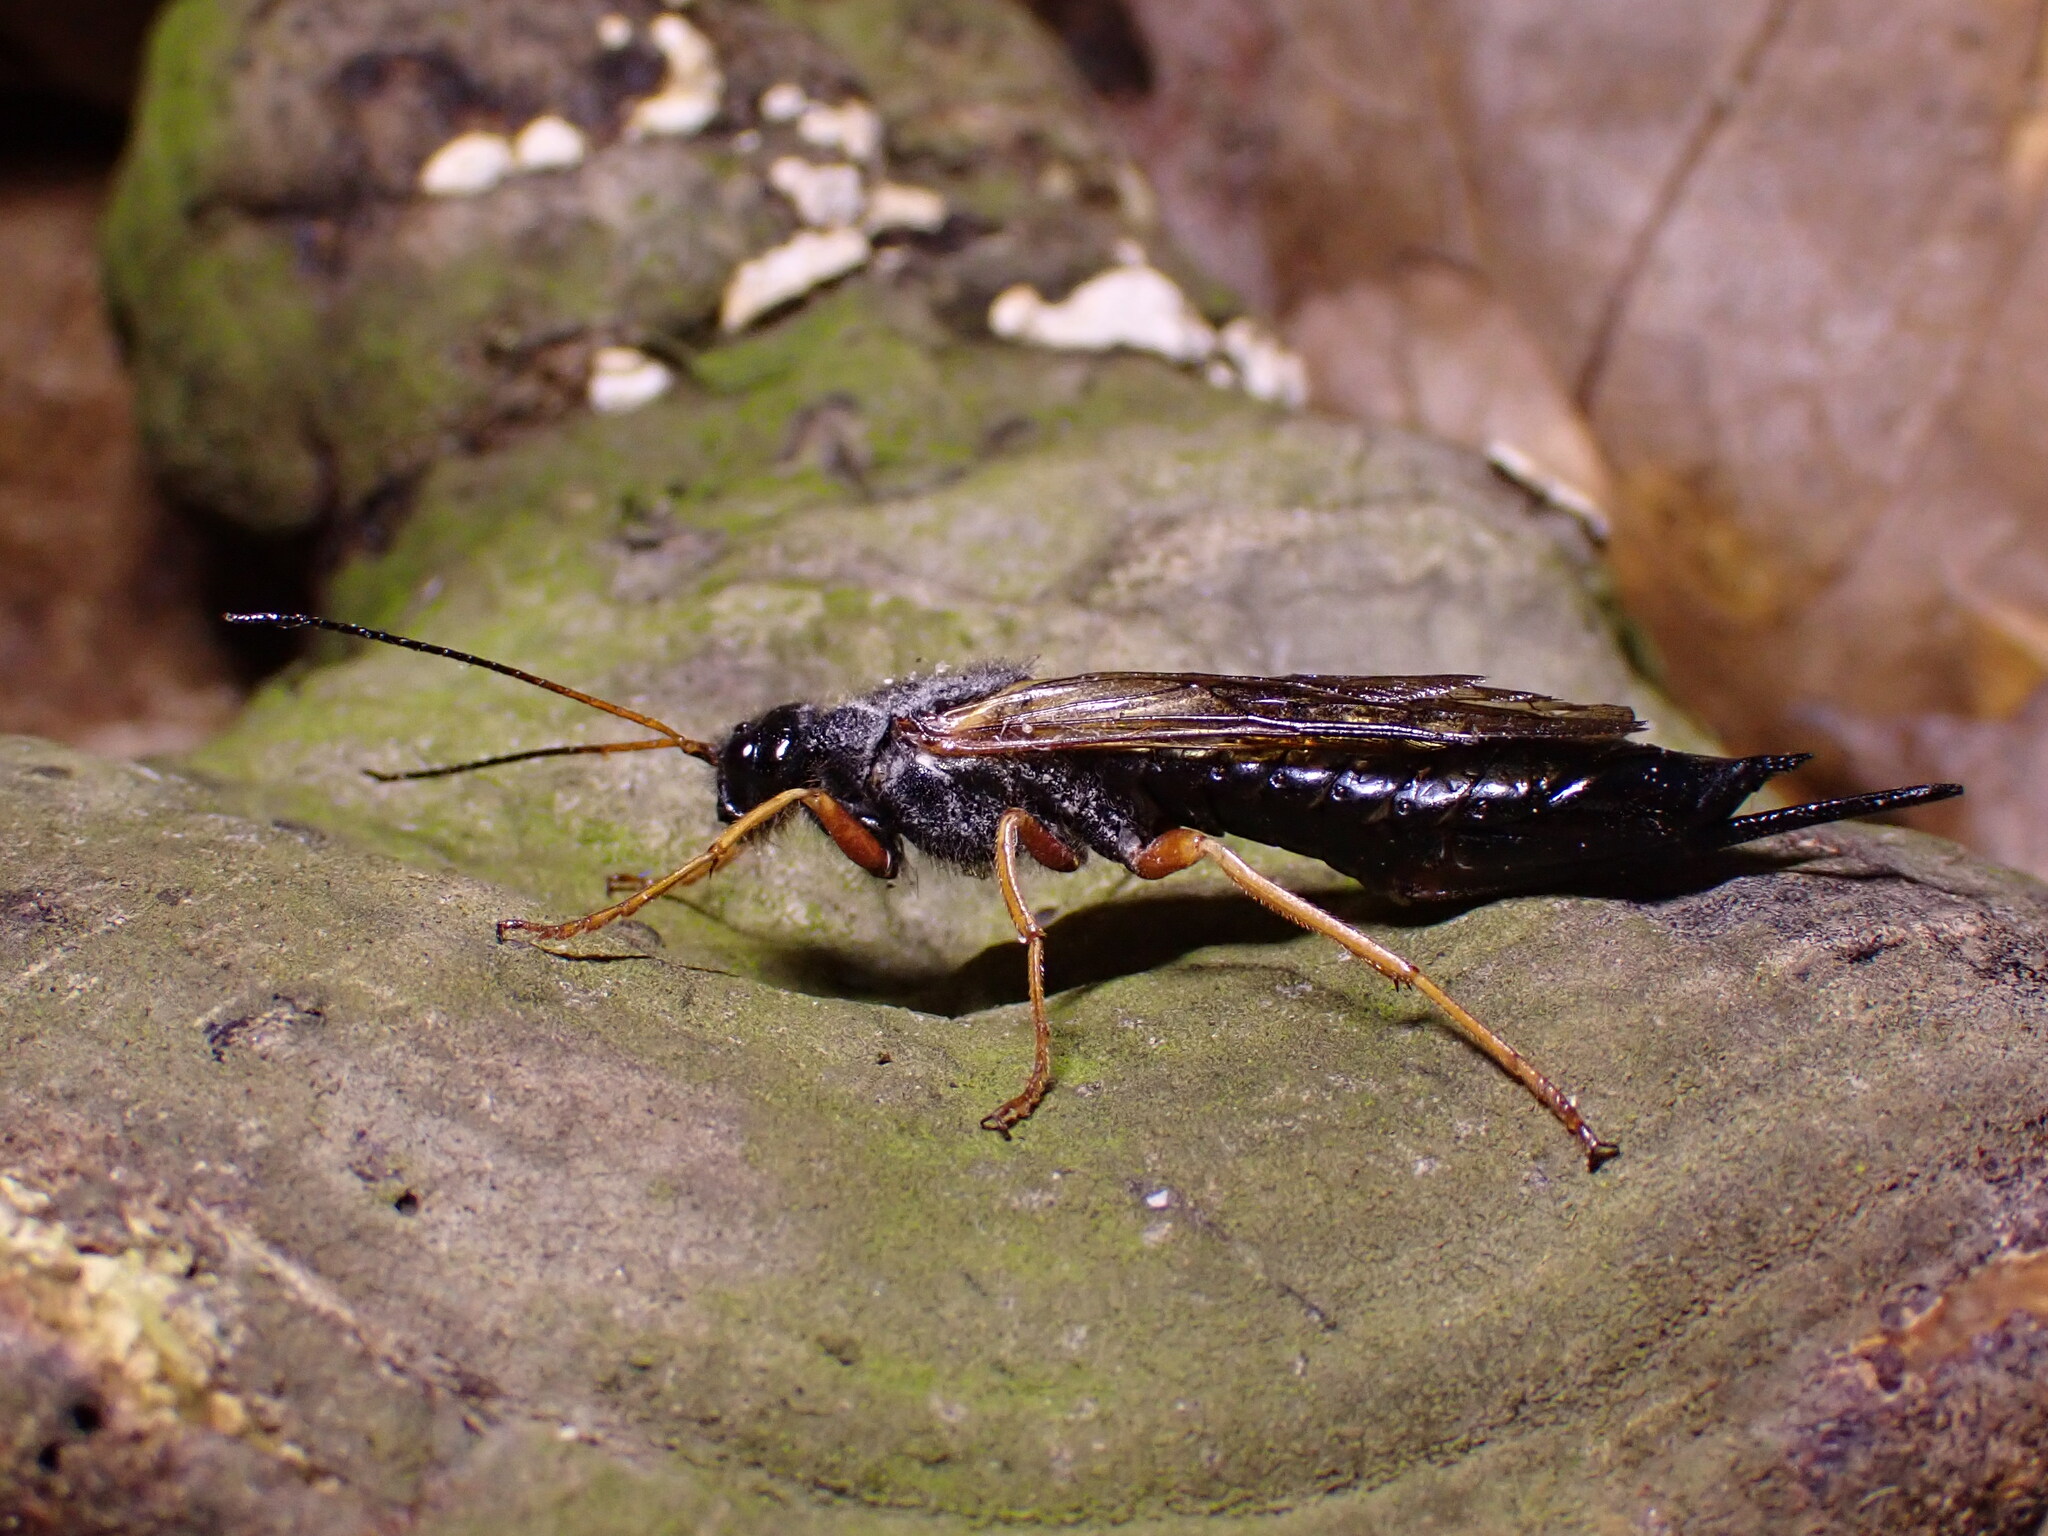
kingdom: Animalia
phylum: Arthropoda
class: Insecta
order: Hymenoptera
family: Siricidae
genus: Sirex
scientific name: Sirex juvencus
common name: Blue horntail
